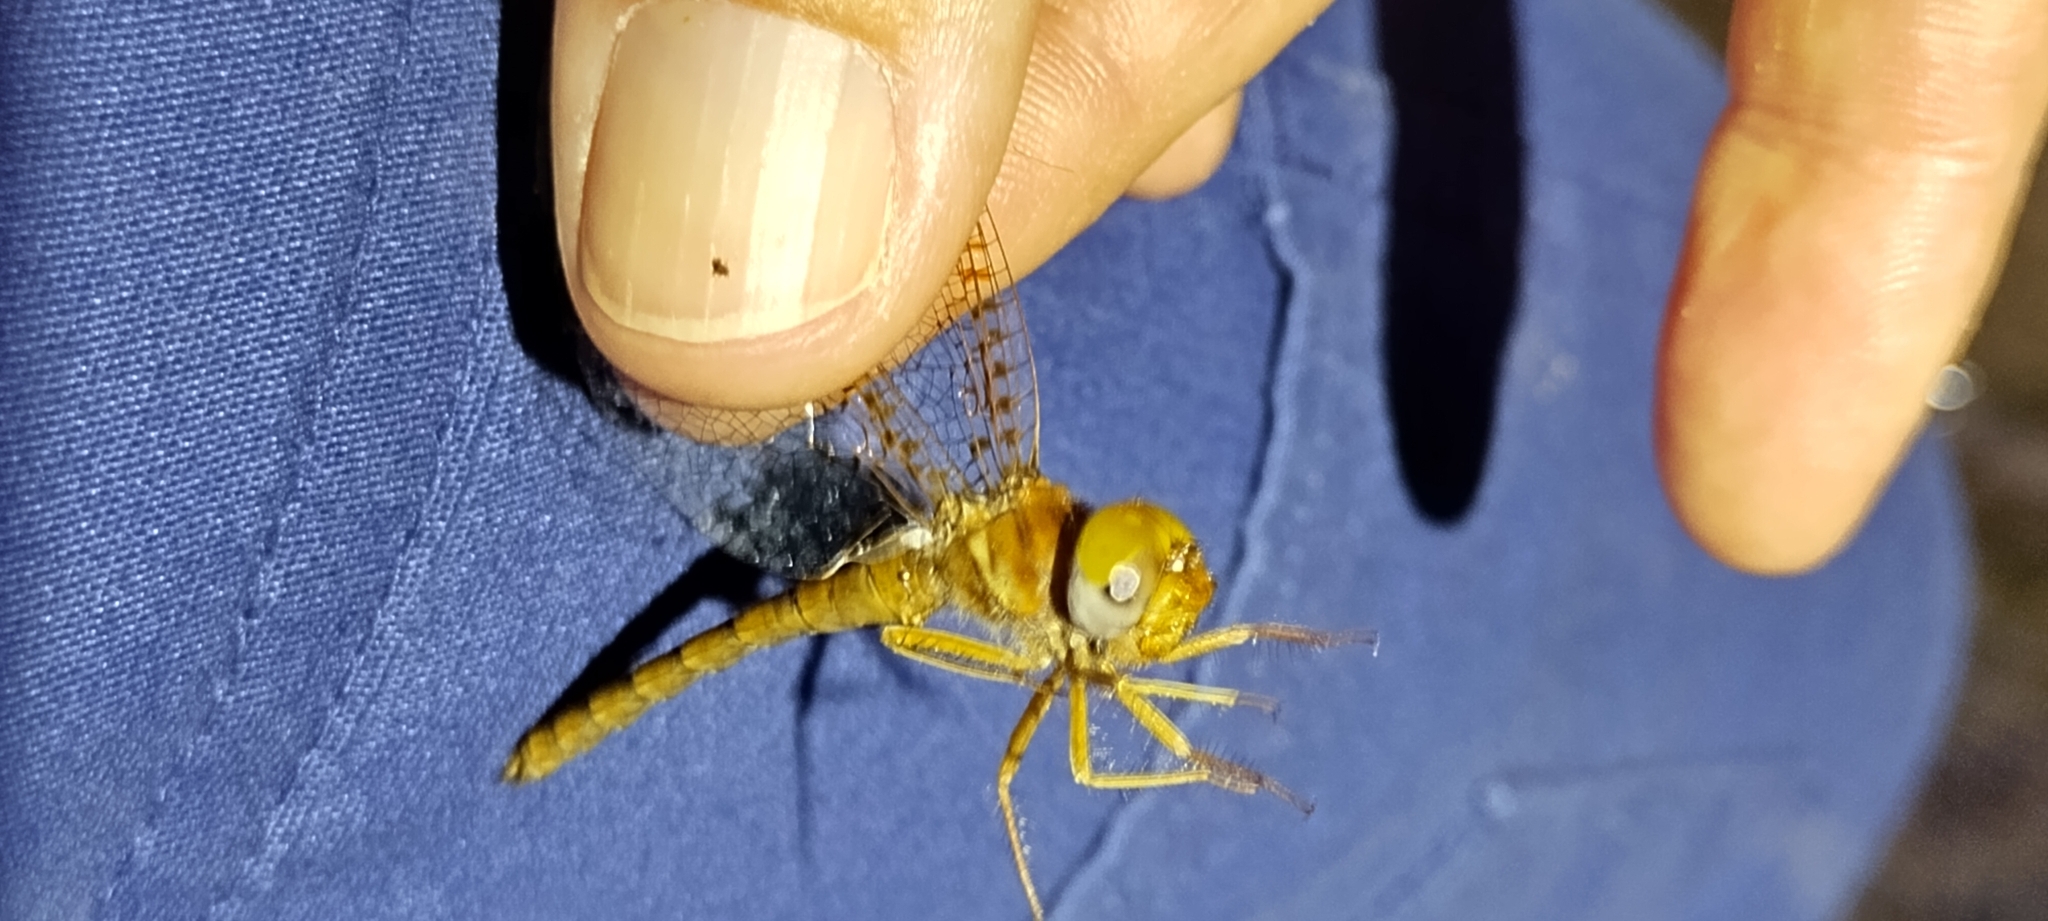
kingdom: Animalia
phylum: Arthropoda
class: Insecta
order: Odonata
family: Corduliidae
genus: Neurocordulia
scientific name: Neurocordulia alabamensis
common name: Alabama shadowdragon
